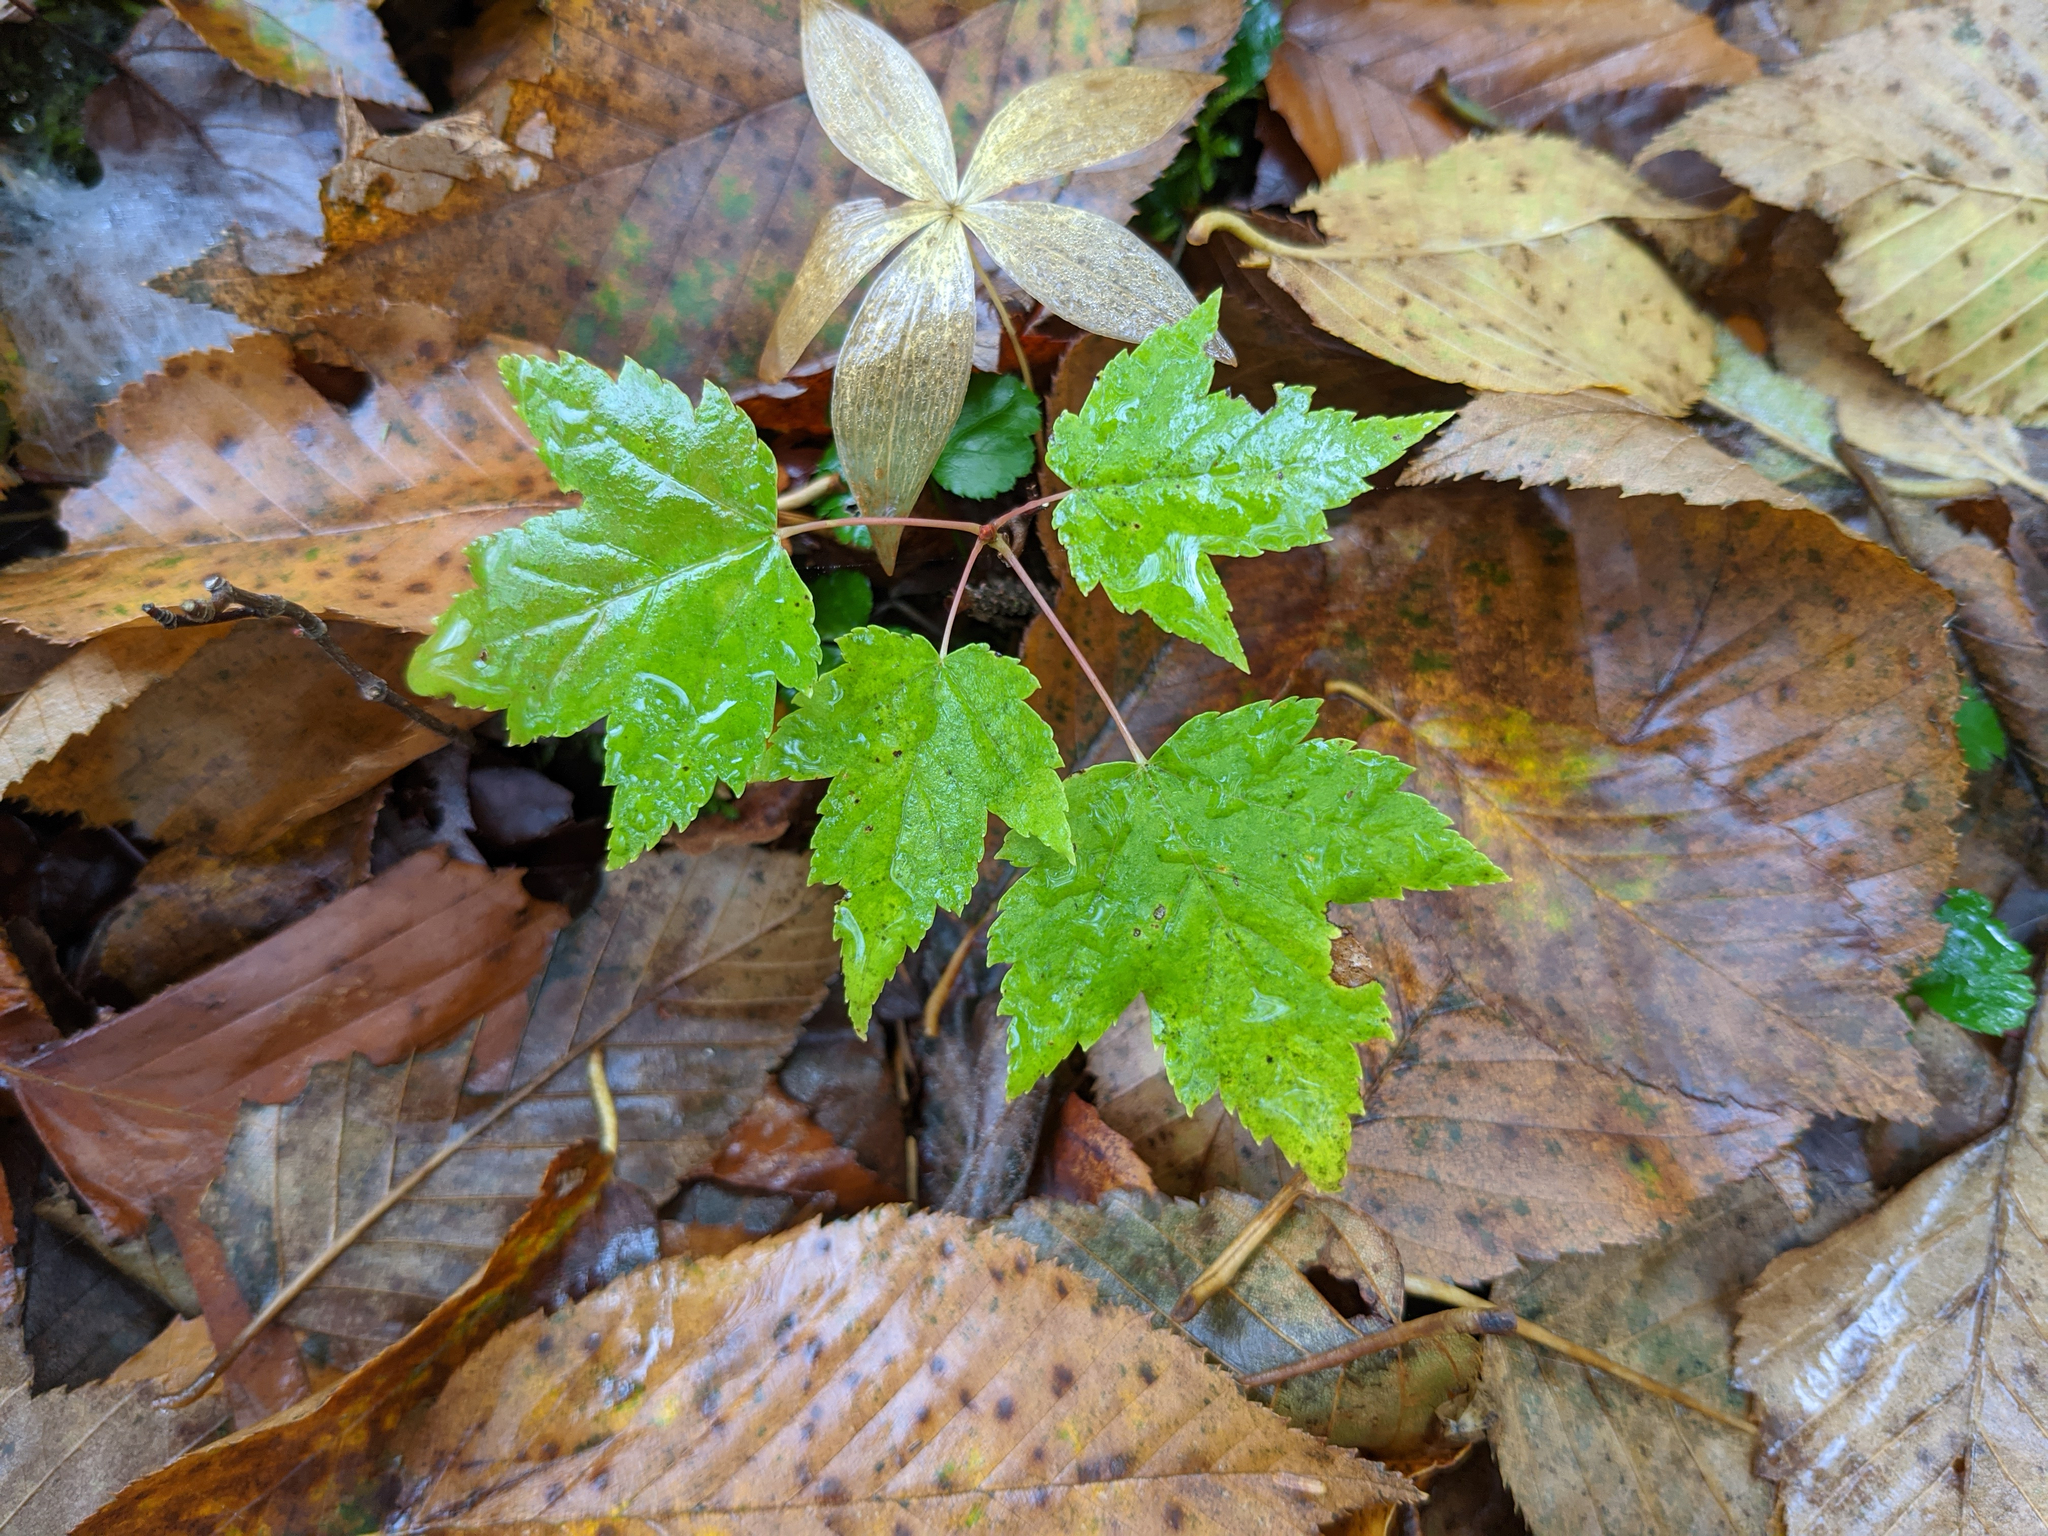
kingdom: Plantae
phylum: Tracheophyta
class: Liliopsida
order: Liliales
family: Liliaceae
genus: Medeola
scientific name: Medeola virginiana
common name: Indian cucumber-root
